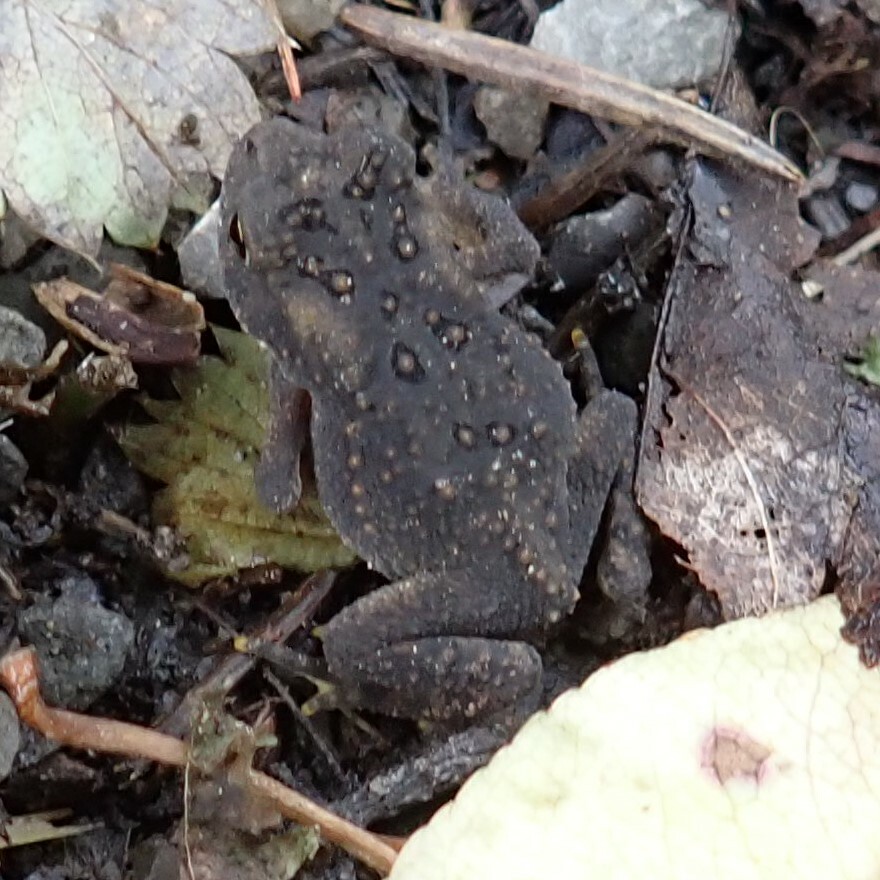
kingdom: Animalia
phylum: Chordata
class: Amphibia
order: Anura
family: Bufonidae
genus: Anaxyrus
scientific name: Anaxyrus americanus
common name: American toad
